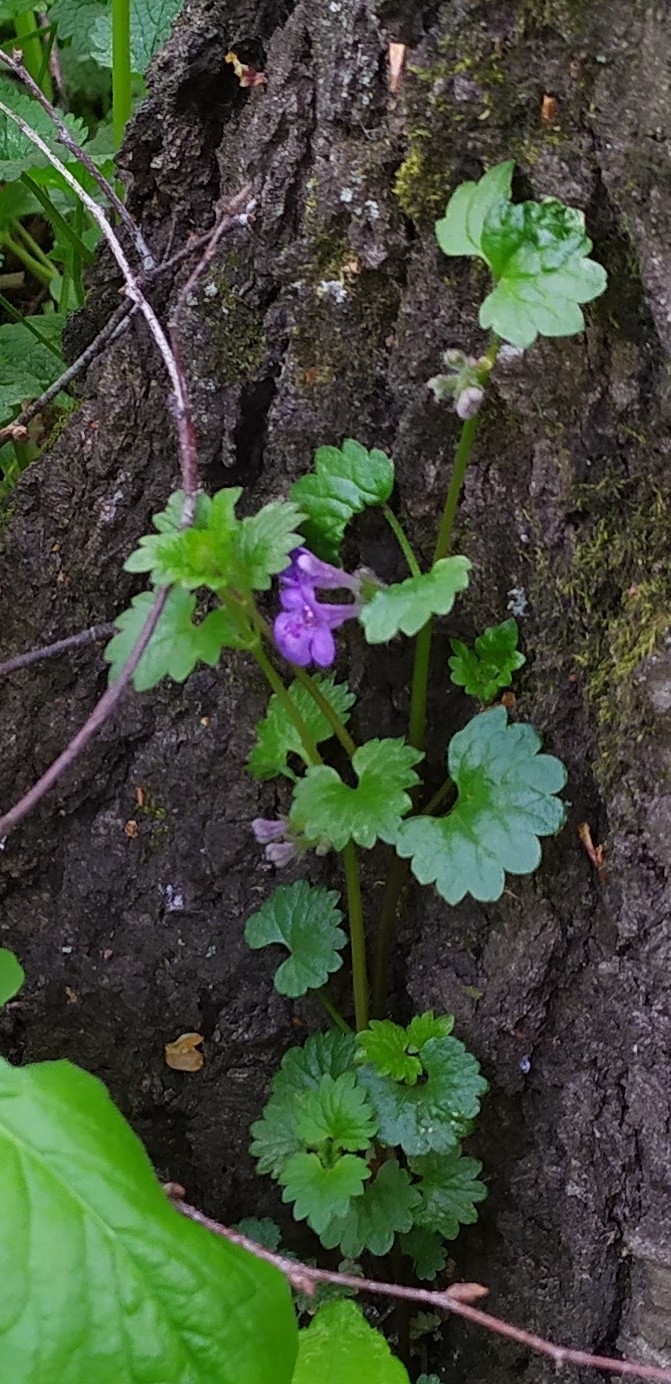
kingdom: Plantae
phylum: Tracheophyta
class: Magnoliopsida
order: Lamiales
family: Lamiaceae
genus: Glechoma
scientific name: Glechoma hederacea
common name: Ground ivy
